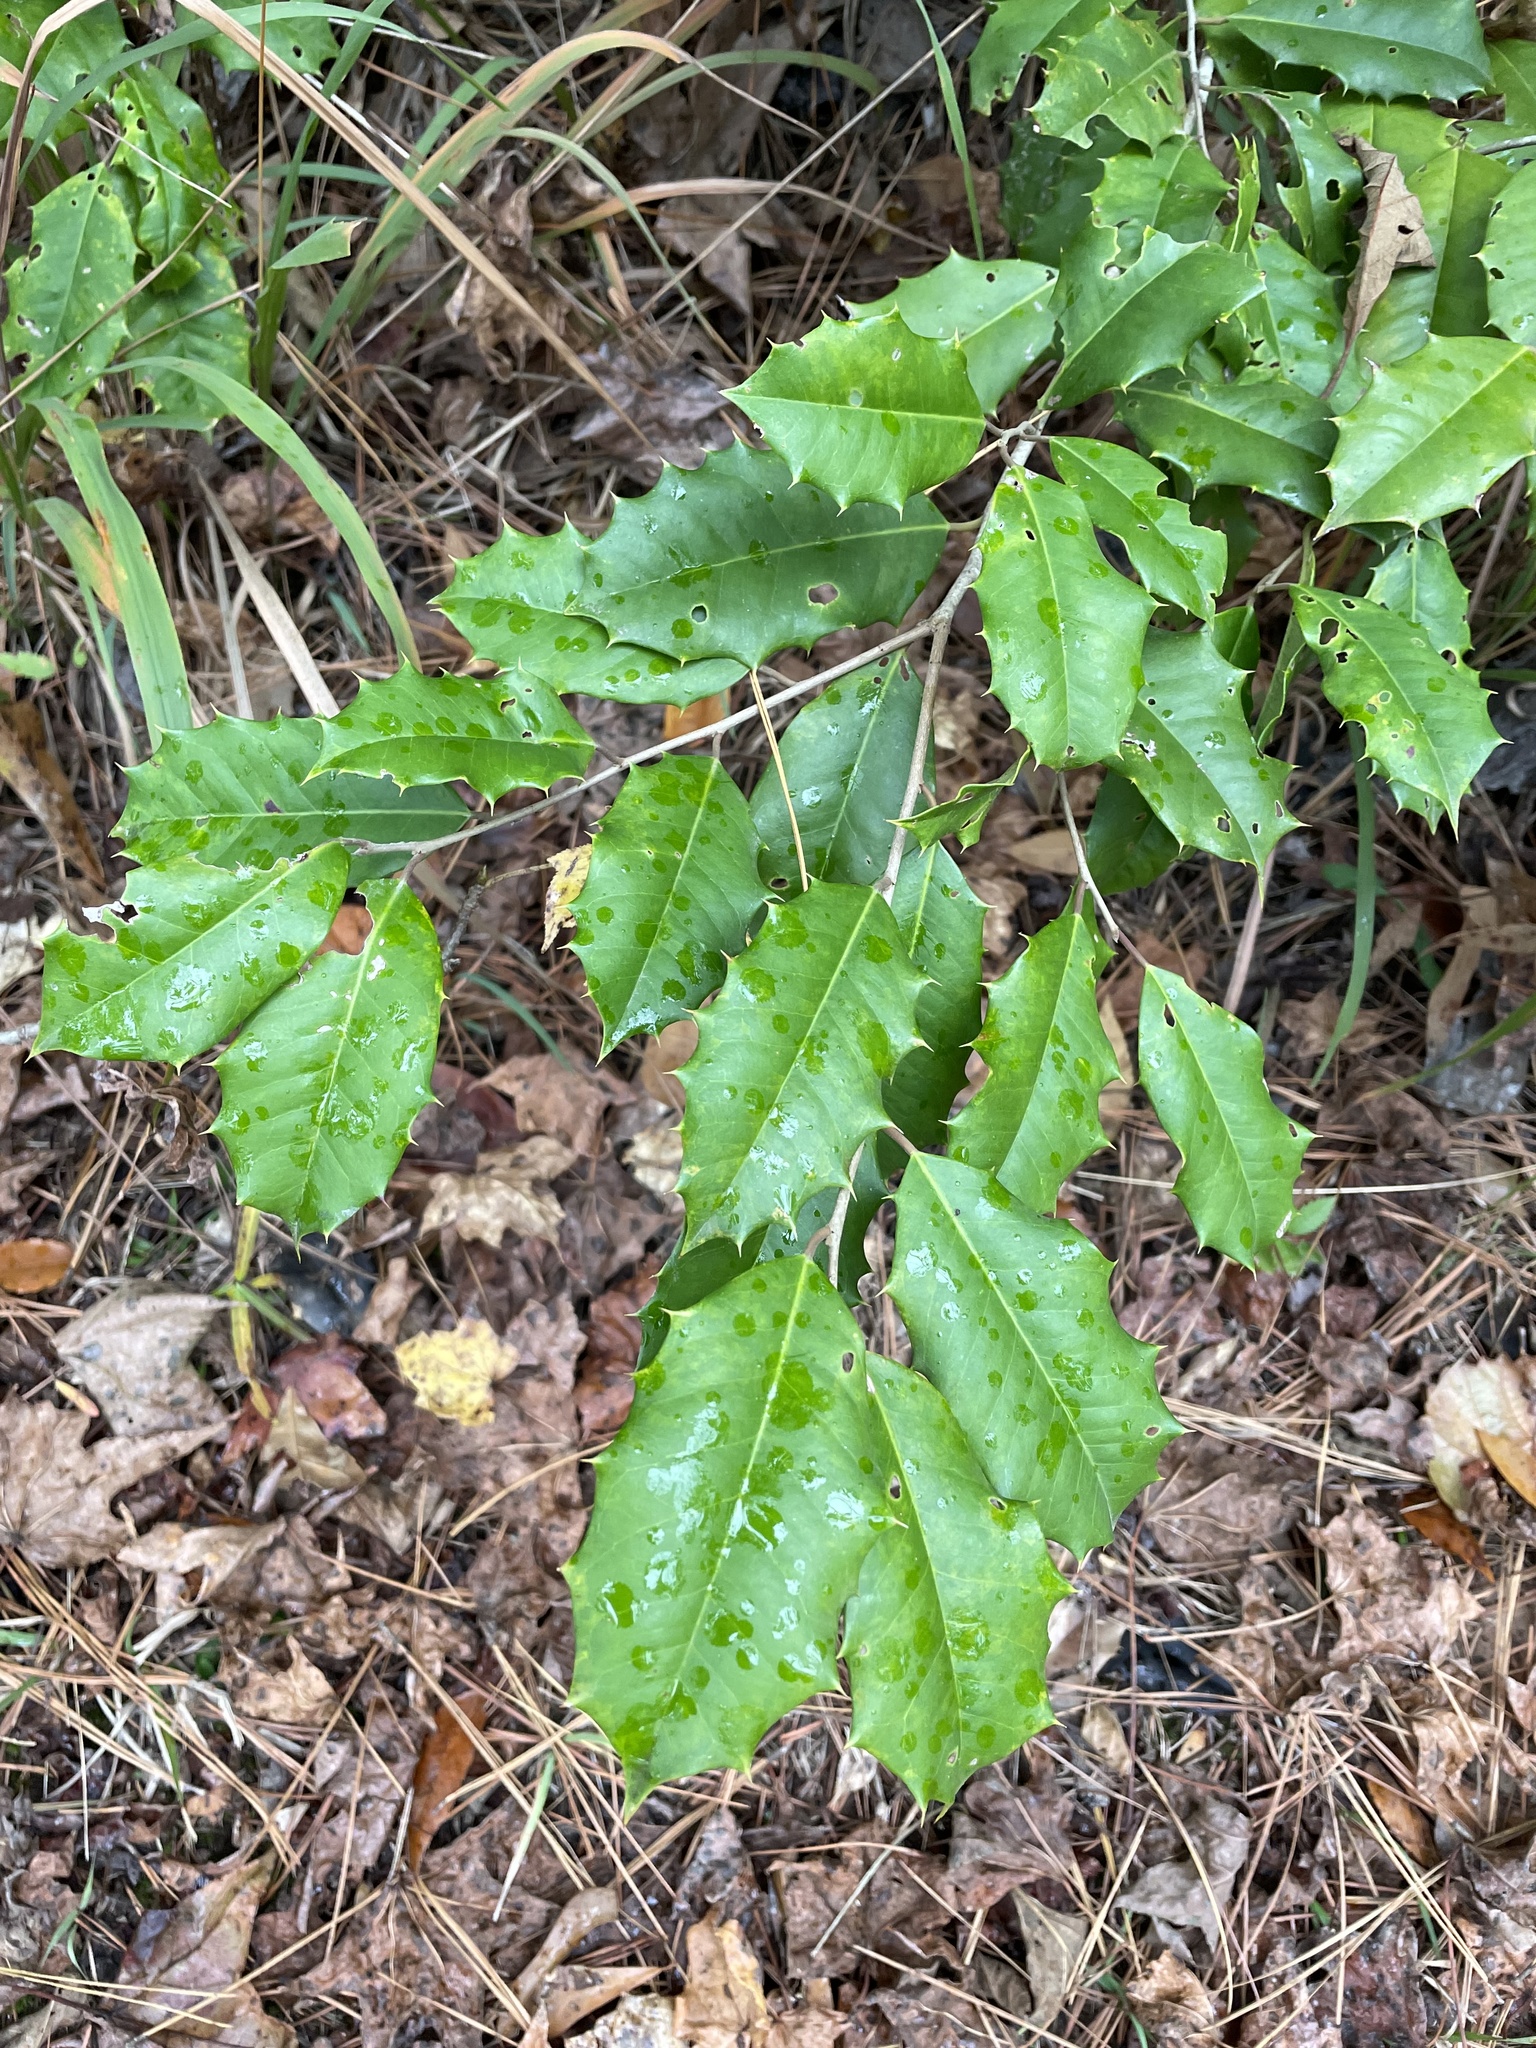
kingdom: Plantae
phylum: Tracheophyta
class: Magnoliopsida
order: Aquifoliales
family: Aquifoliaceae
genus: Ilex
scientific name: Ilex opaca
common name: American holly
